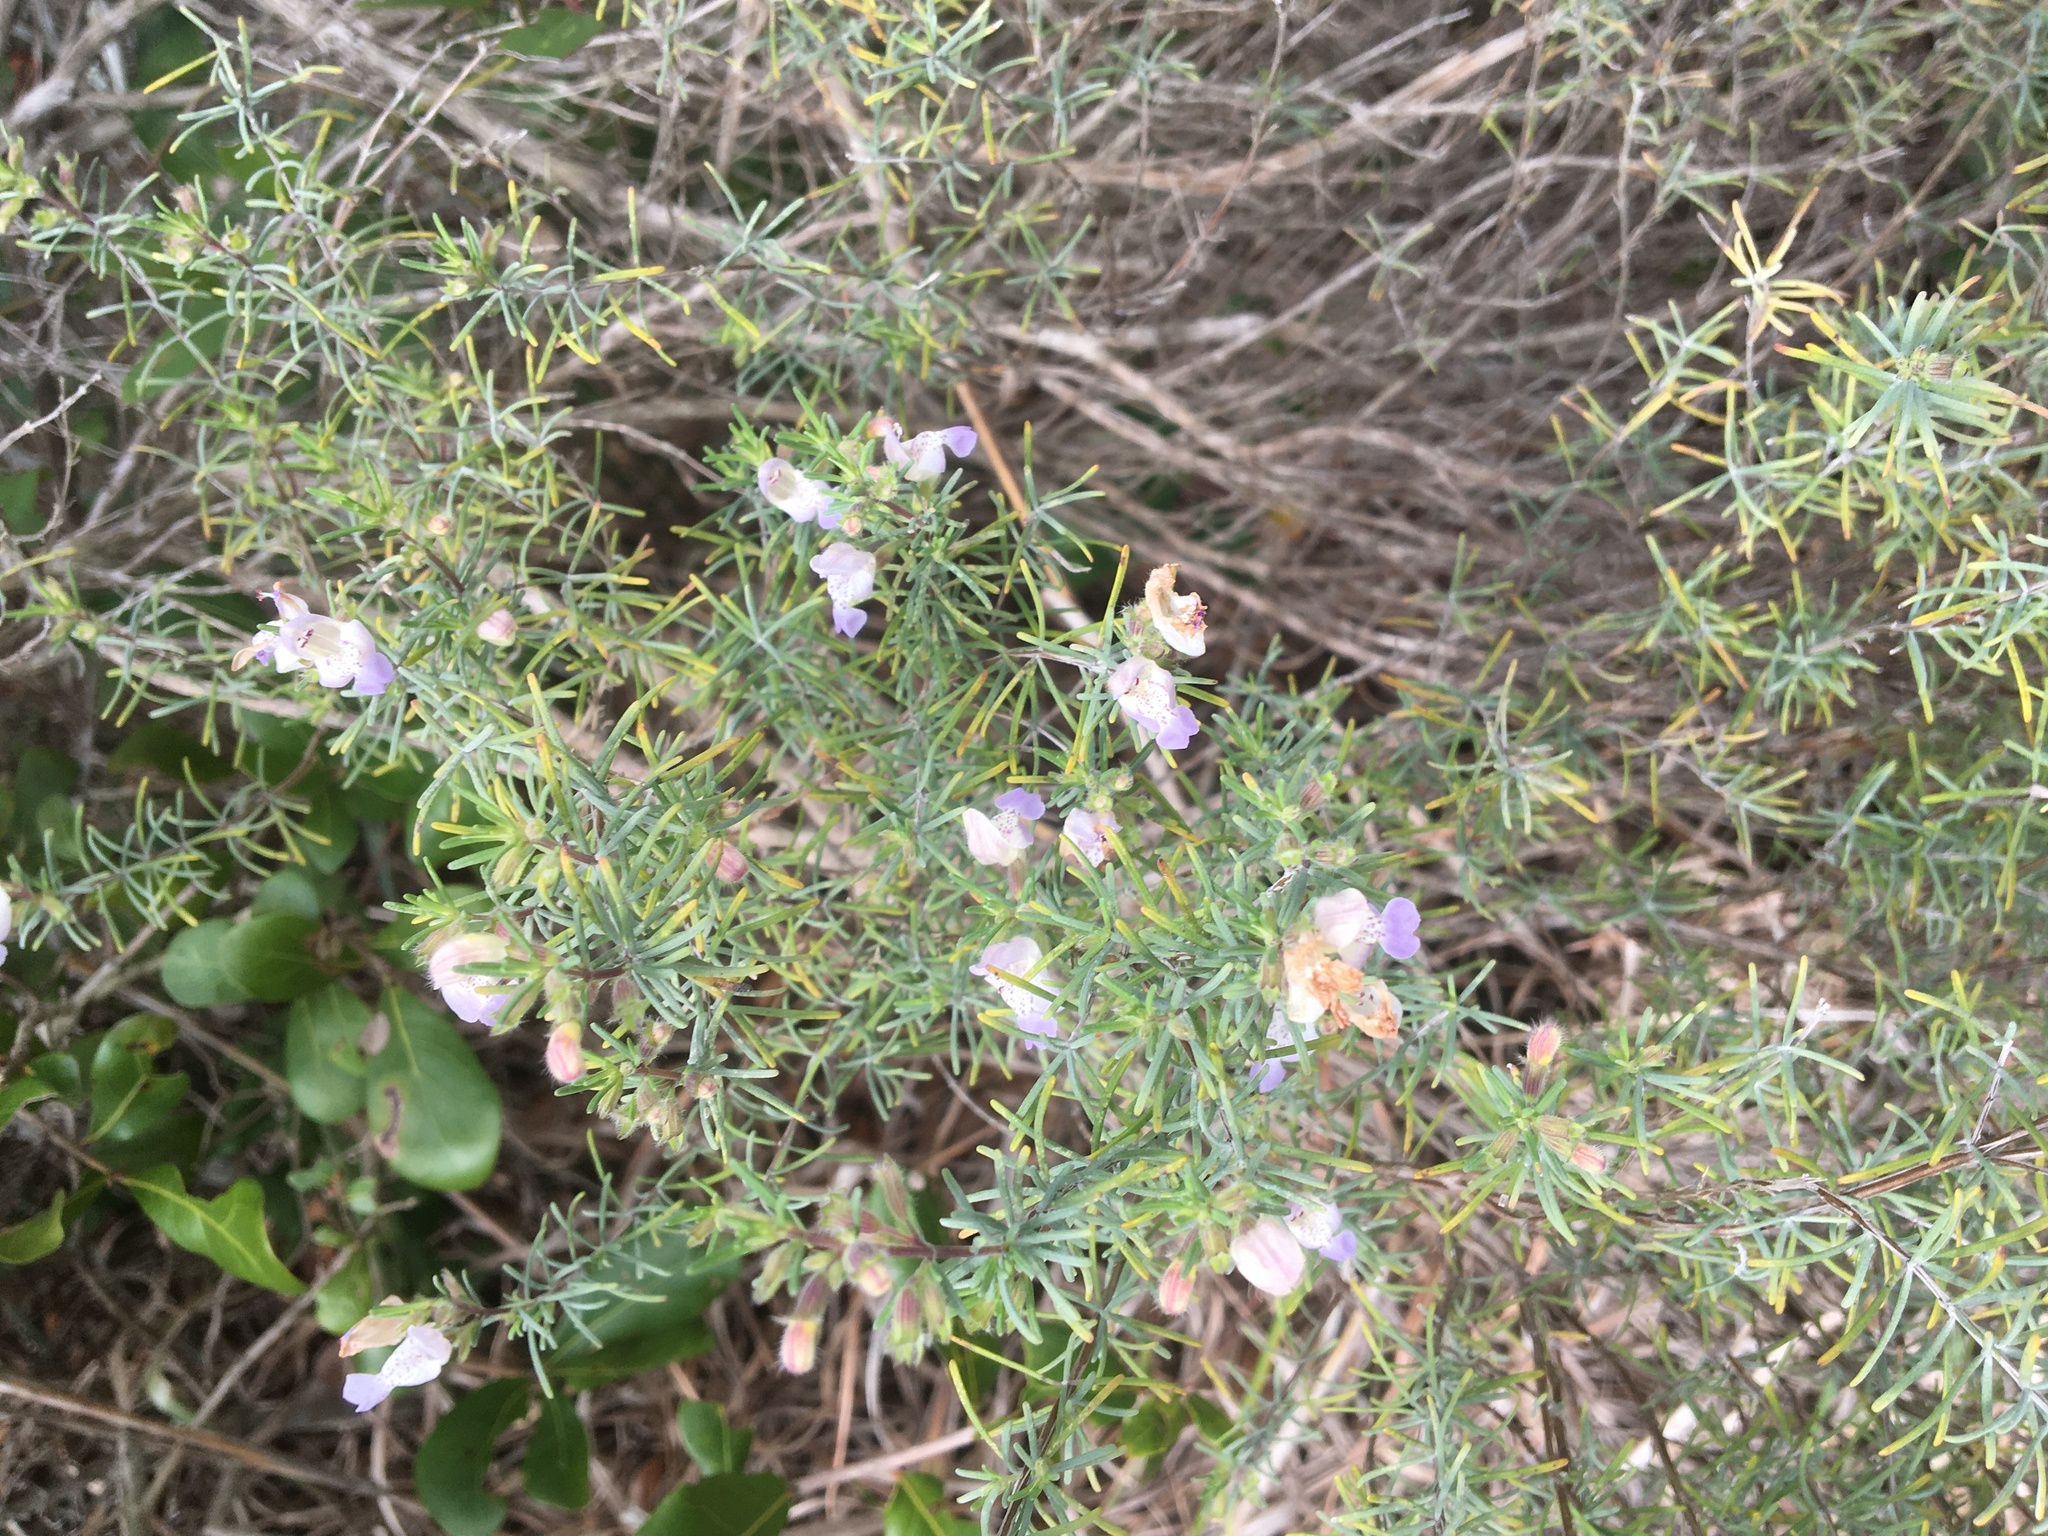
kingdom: Plantae
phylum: Tracheophyta
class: Magnoliopsida
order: Lamiales
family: Lamiaceae
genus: Conradina
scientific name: Conradina canescens
